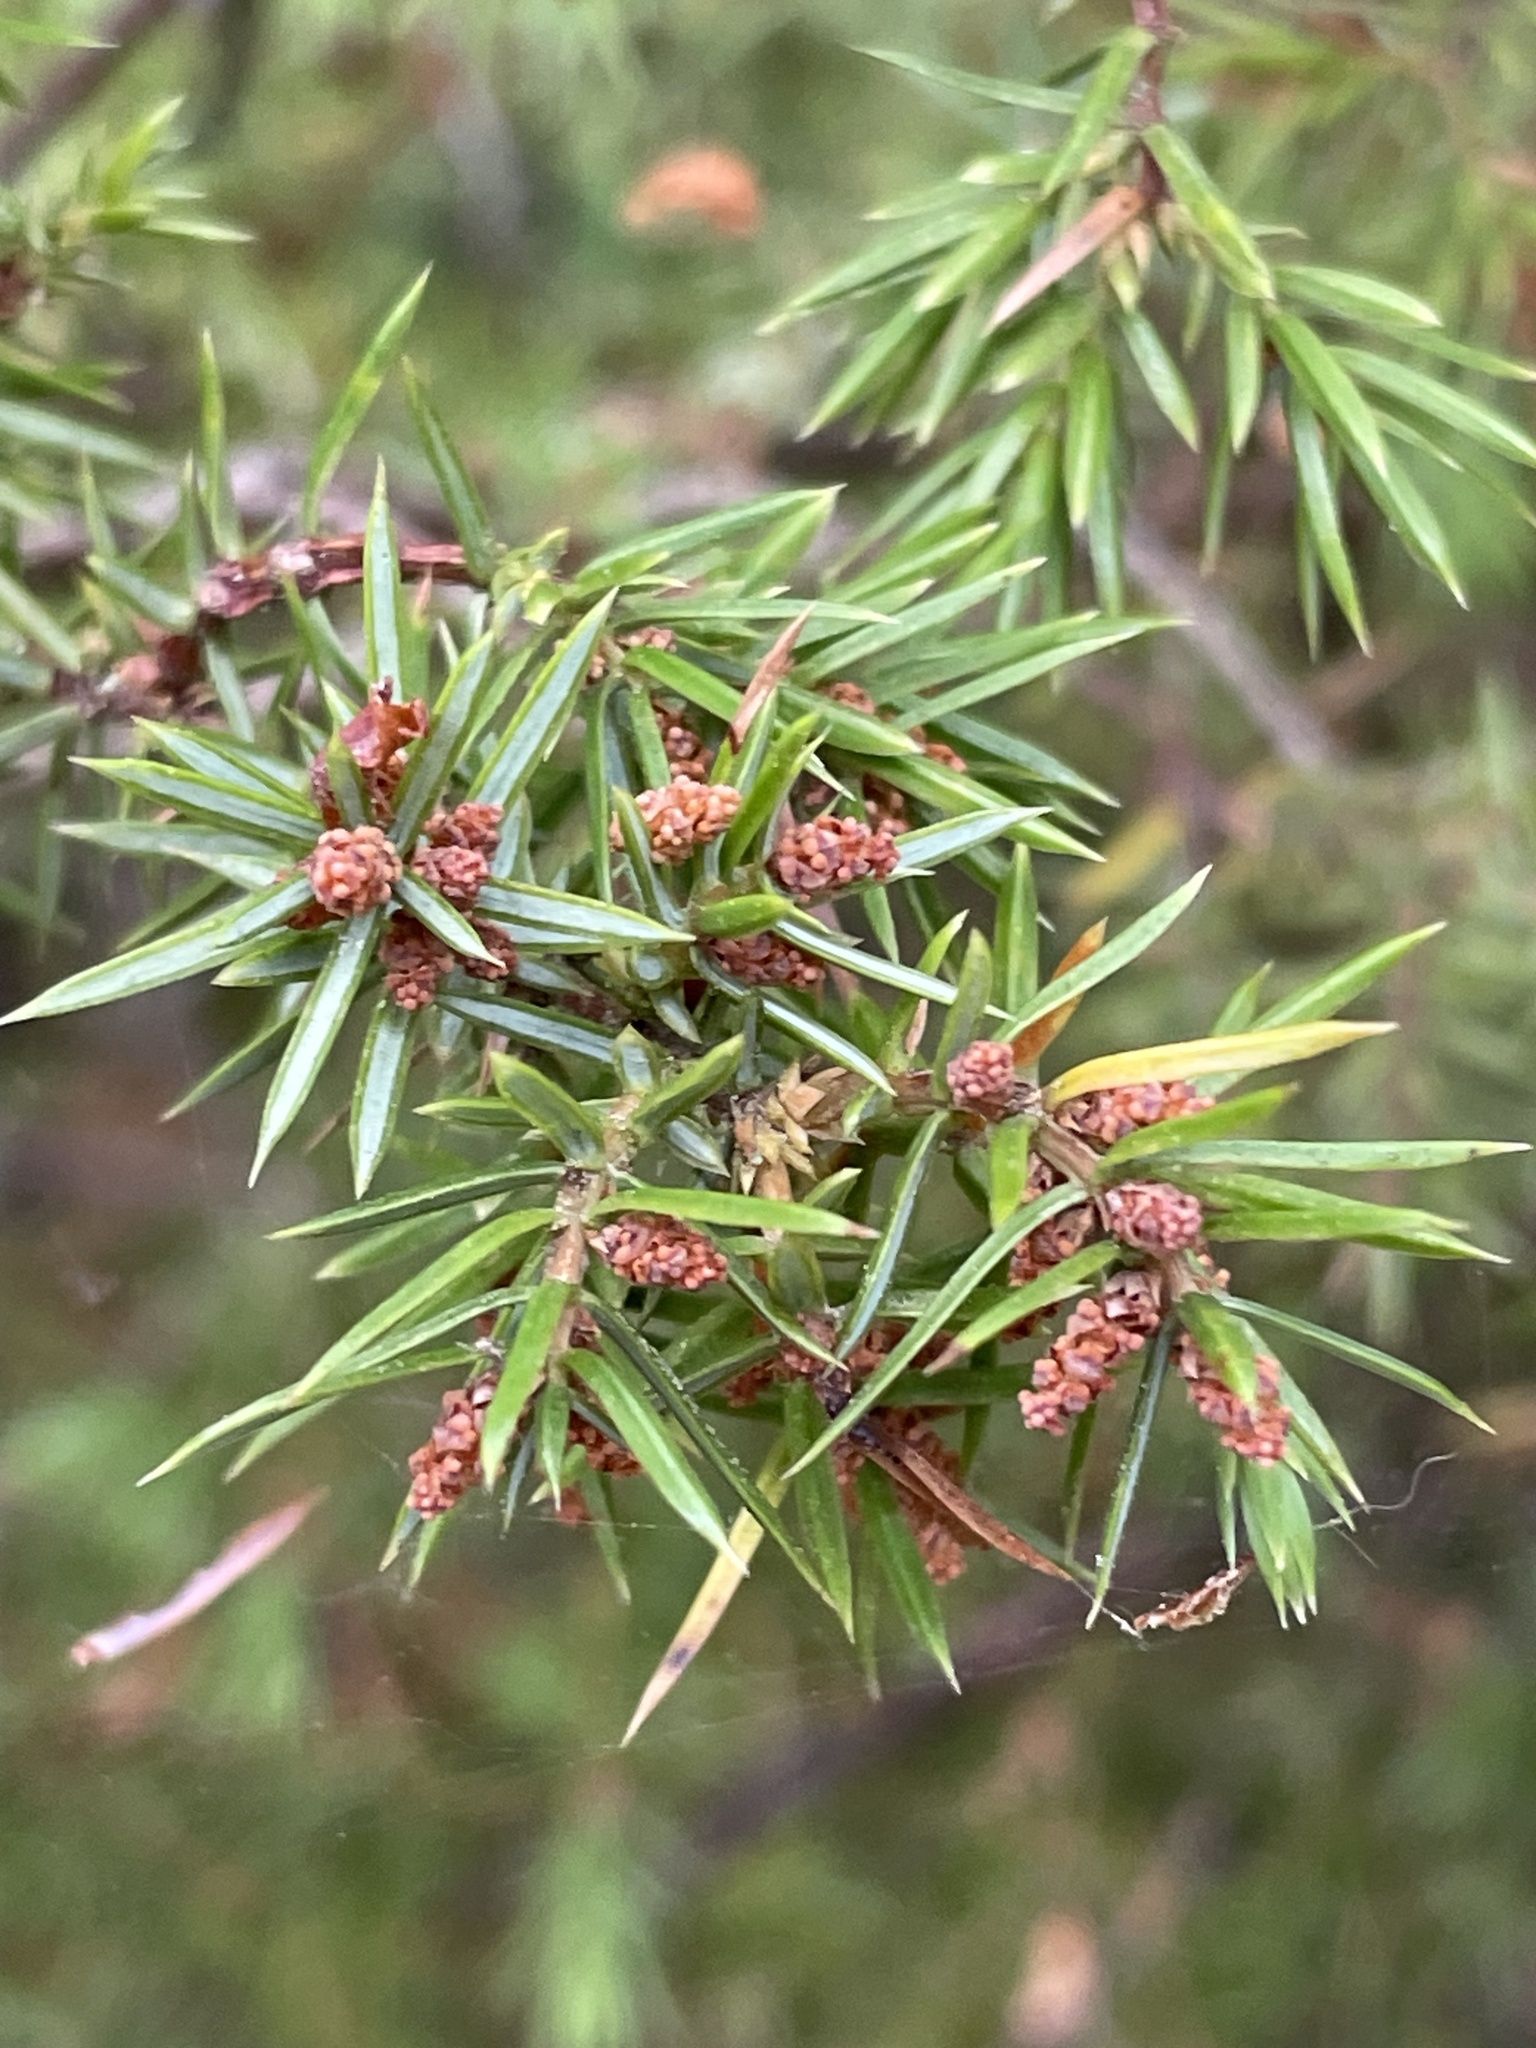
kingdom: Plantae
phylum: Tracheophyta
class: Pinopsida
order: Pinales
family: Cupressaceae
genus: Juniperus
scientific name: Juniperus communis
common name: Common juniper
